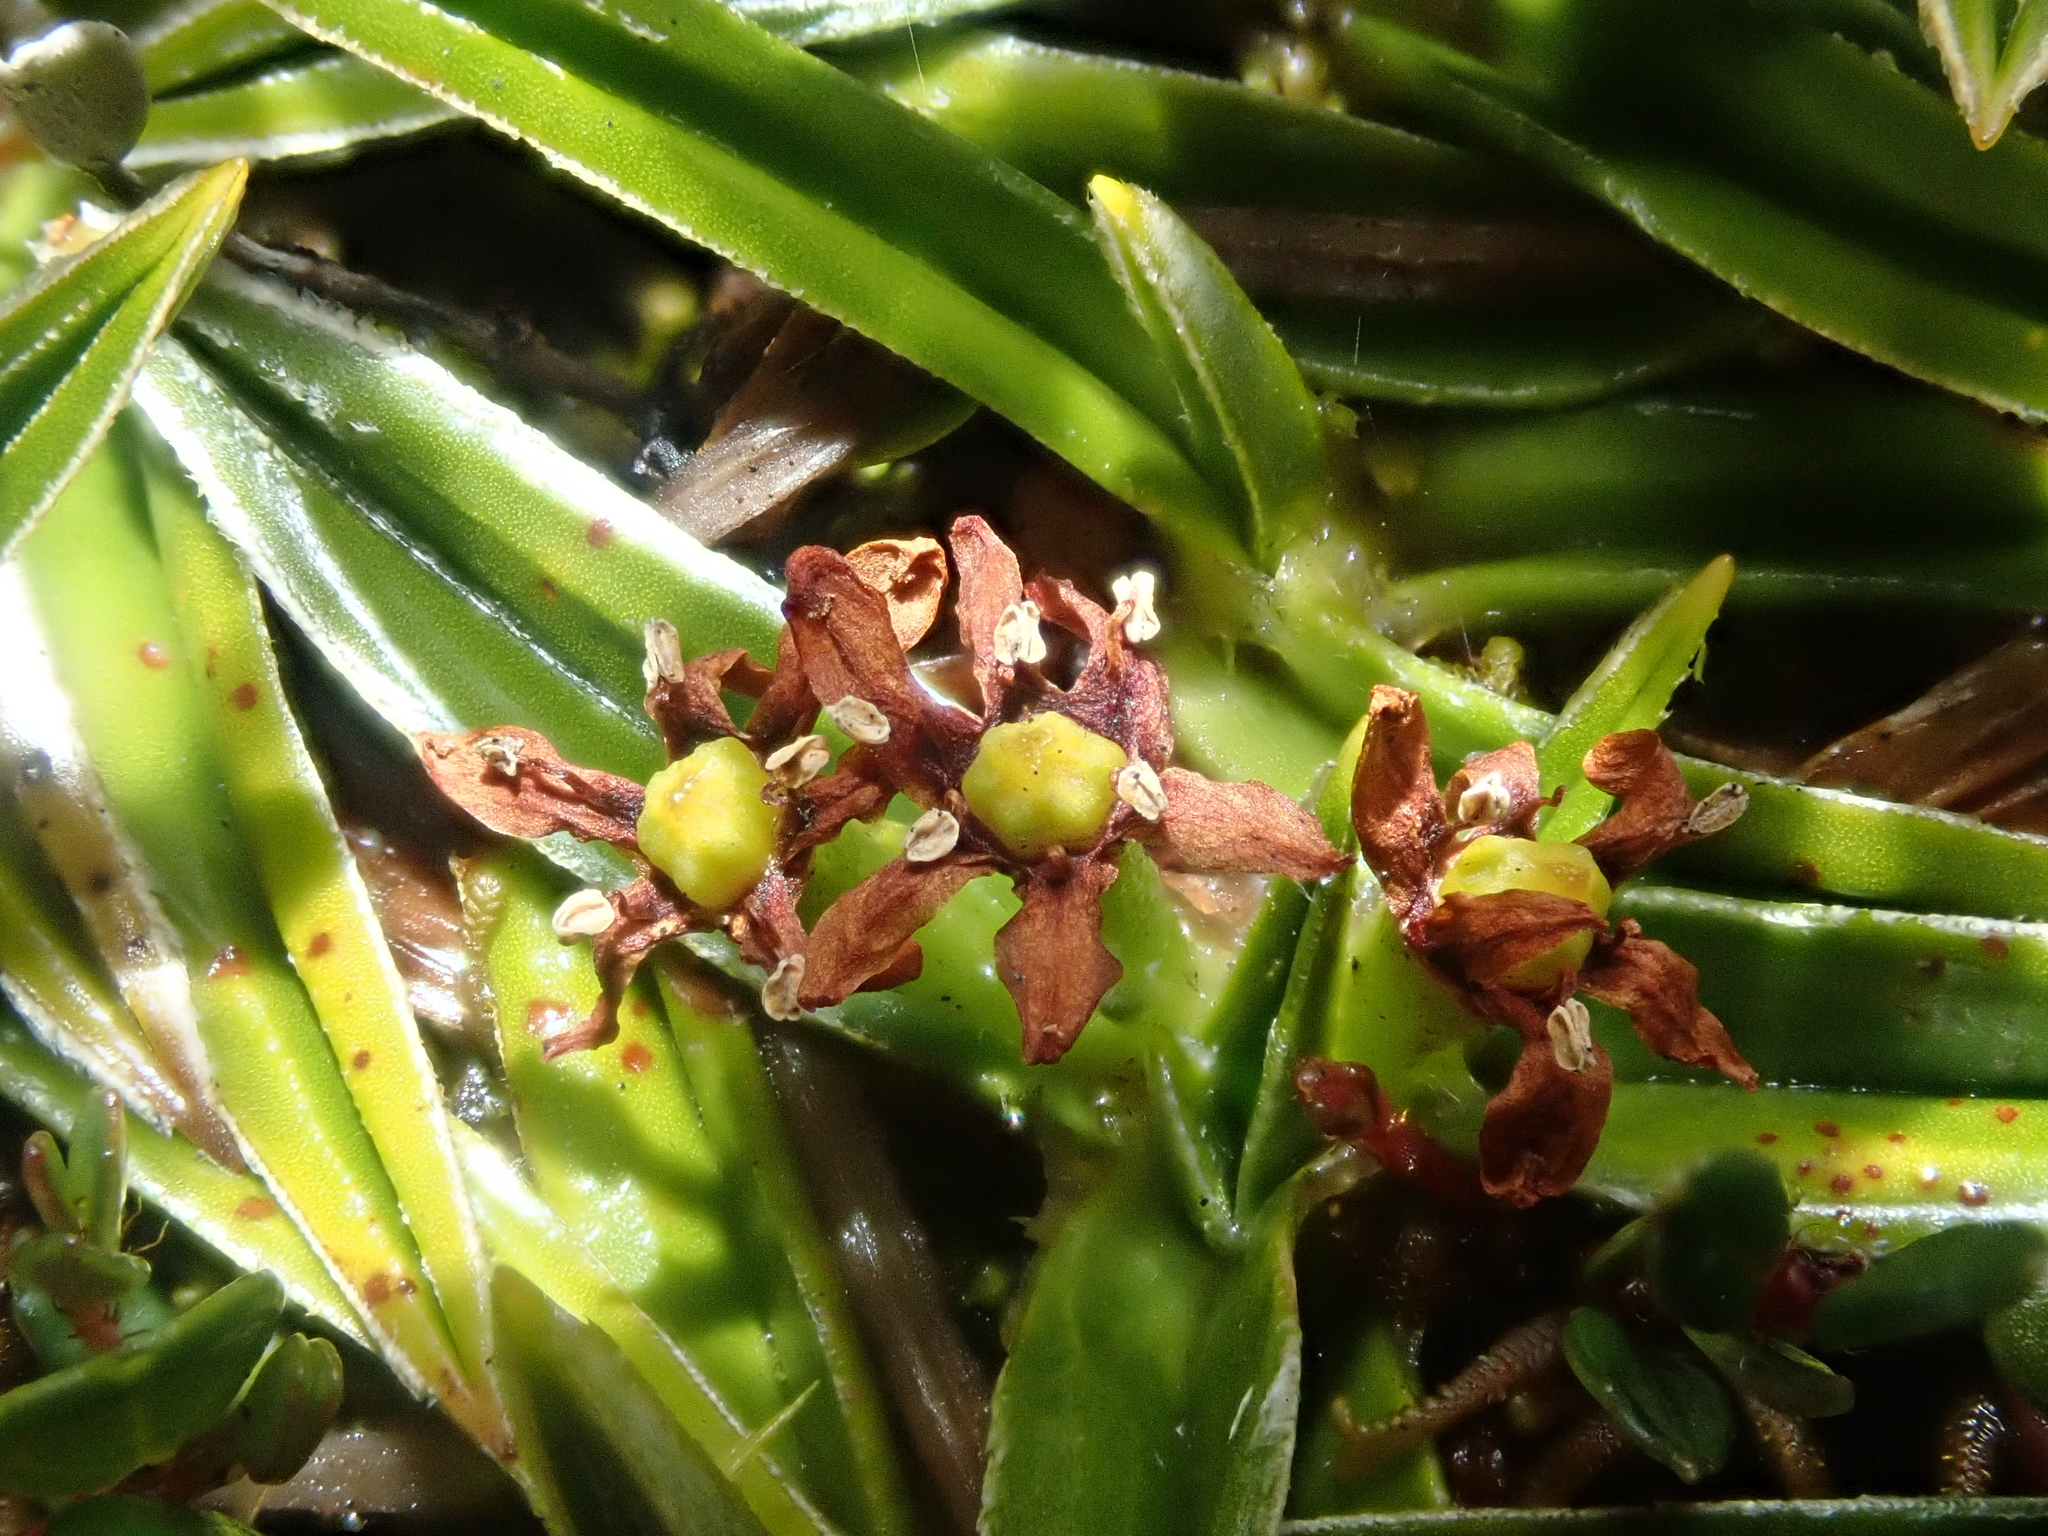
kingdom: Plantae
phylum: Tracheophyta
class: Liliopsida
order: Asparagales
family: Asteliaceae
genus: Astelia
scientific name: Astelia pumila
